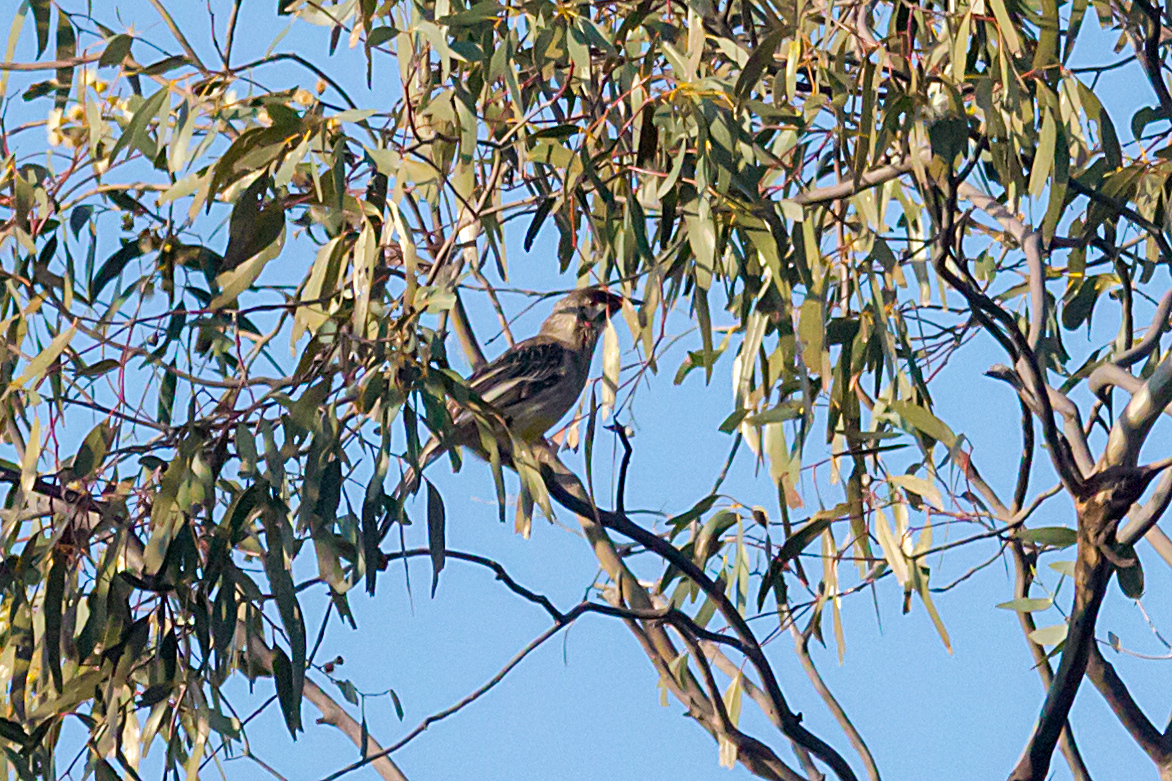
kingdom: Animalia
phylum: Chordata
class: Aves
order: Passeriformes
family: Meliphagidae
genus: Anthochaera
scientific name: Anthochaera carunculata
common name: Red wattlebird
